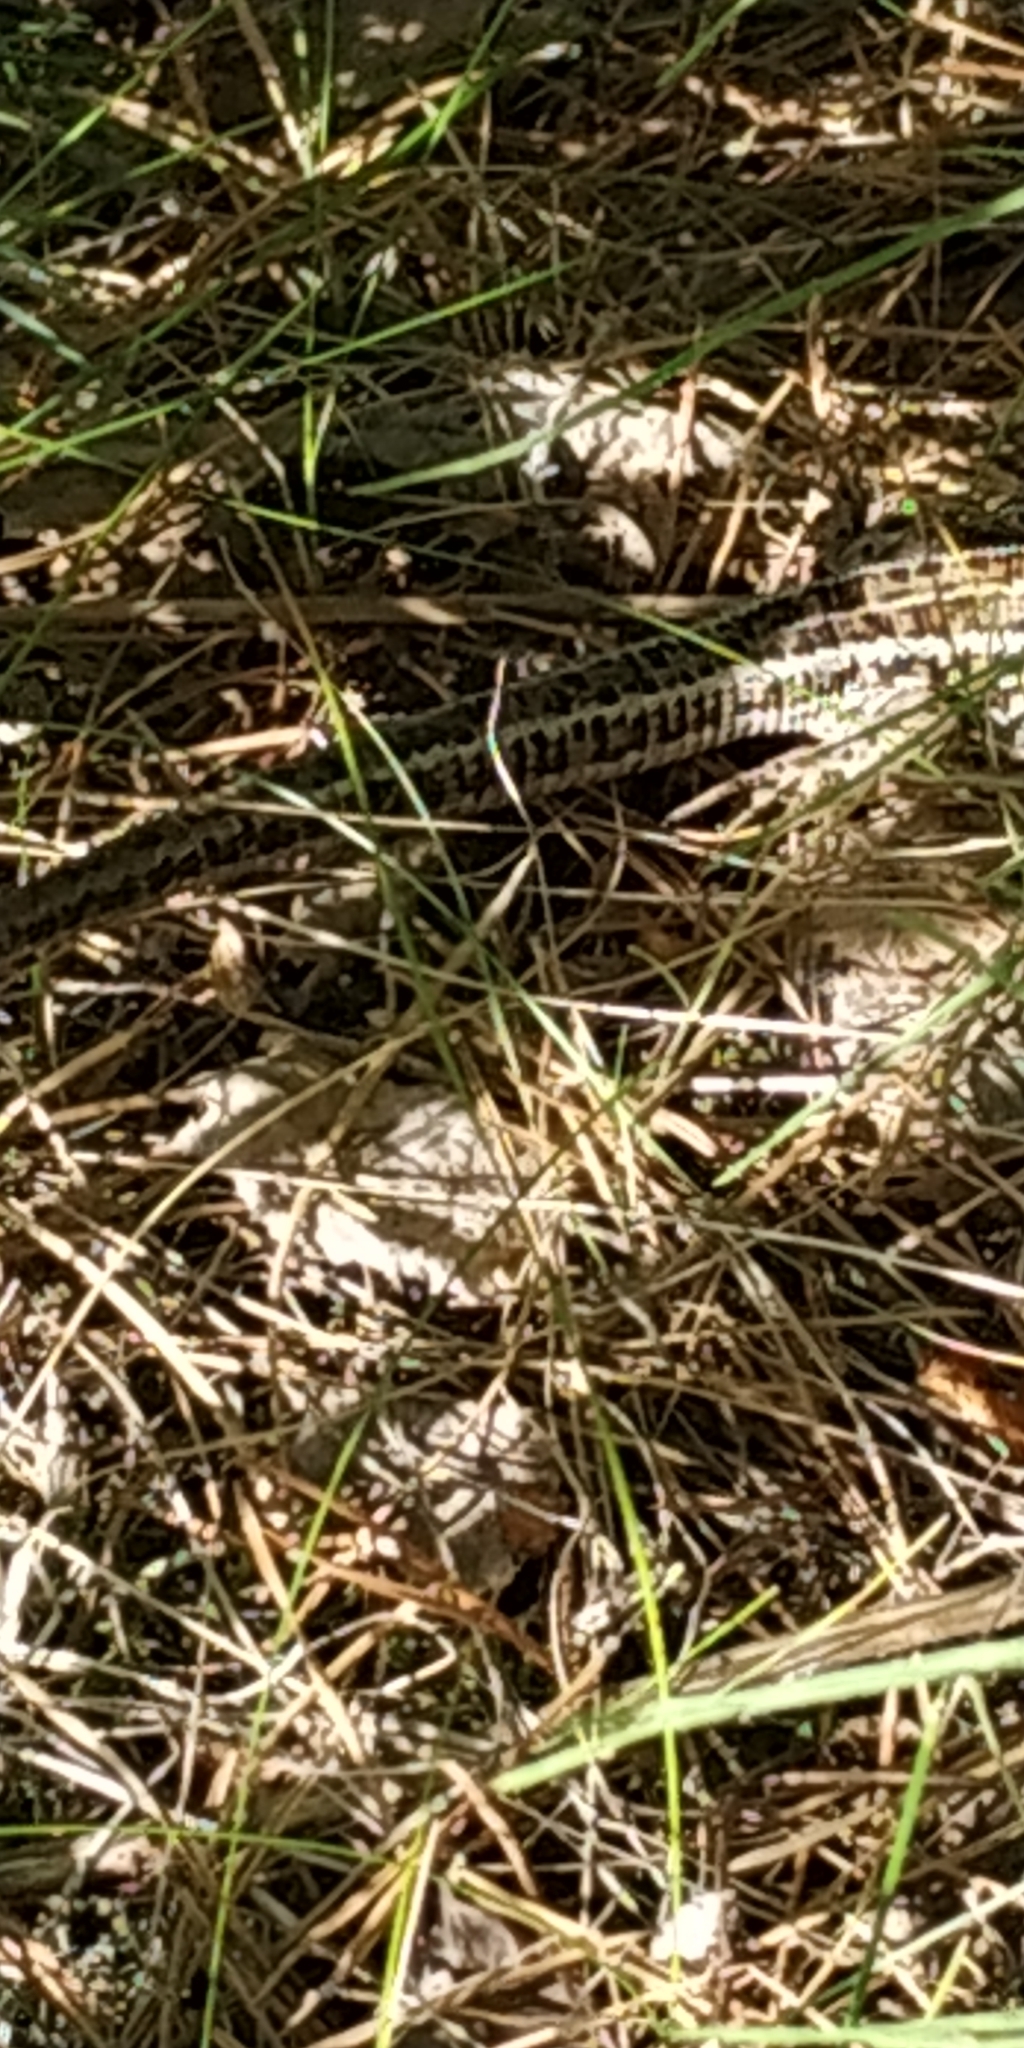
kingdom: Animalia
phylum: Chordata
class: Squamata
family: Lacertidae
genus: Lacerta
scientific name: Lacerta agilis
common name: Sand lizard
